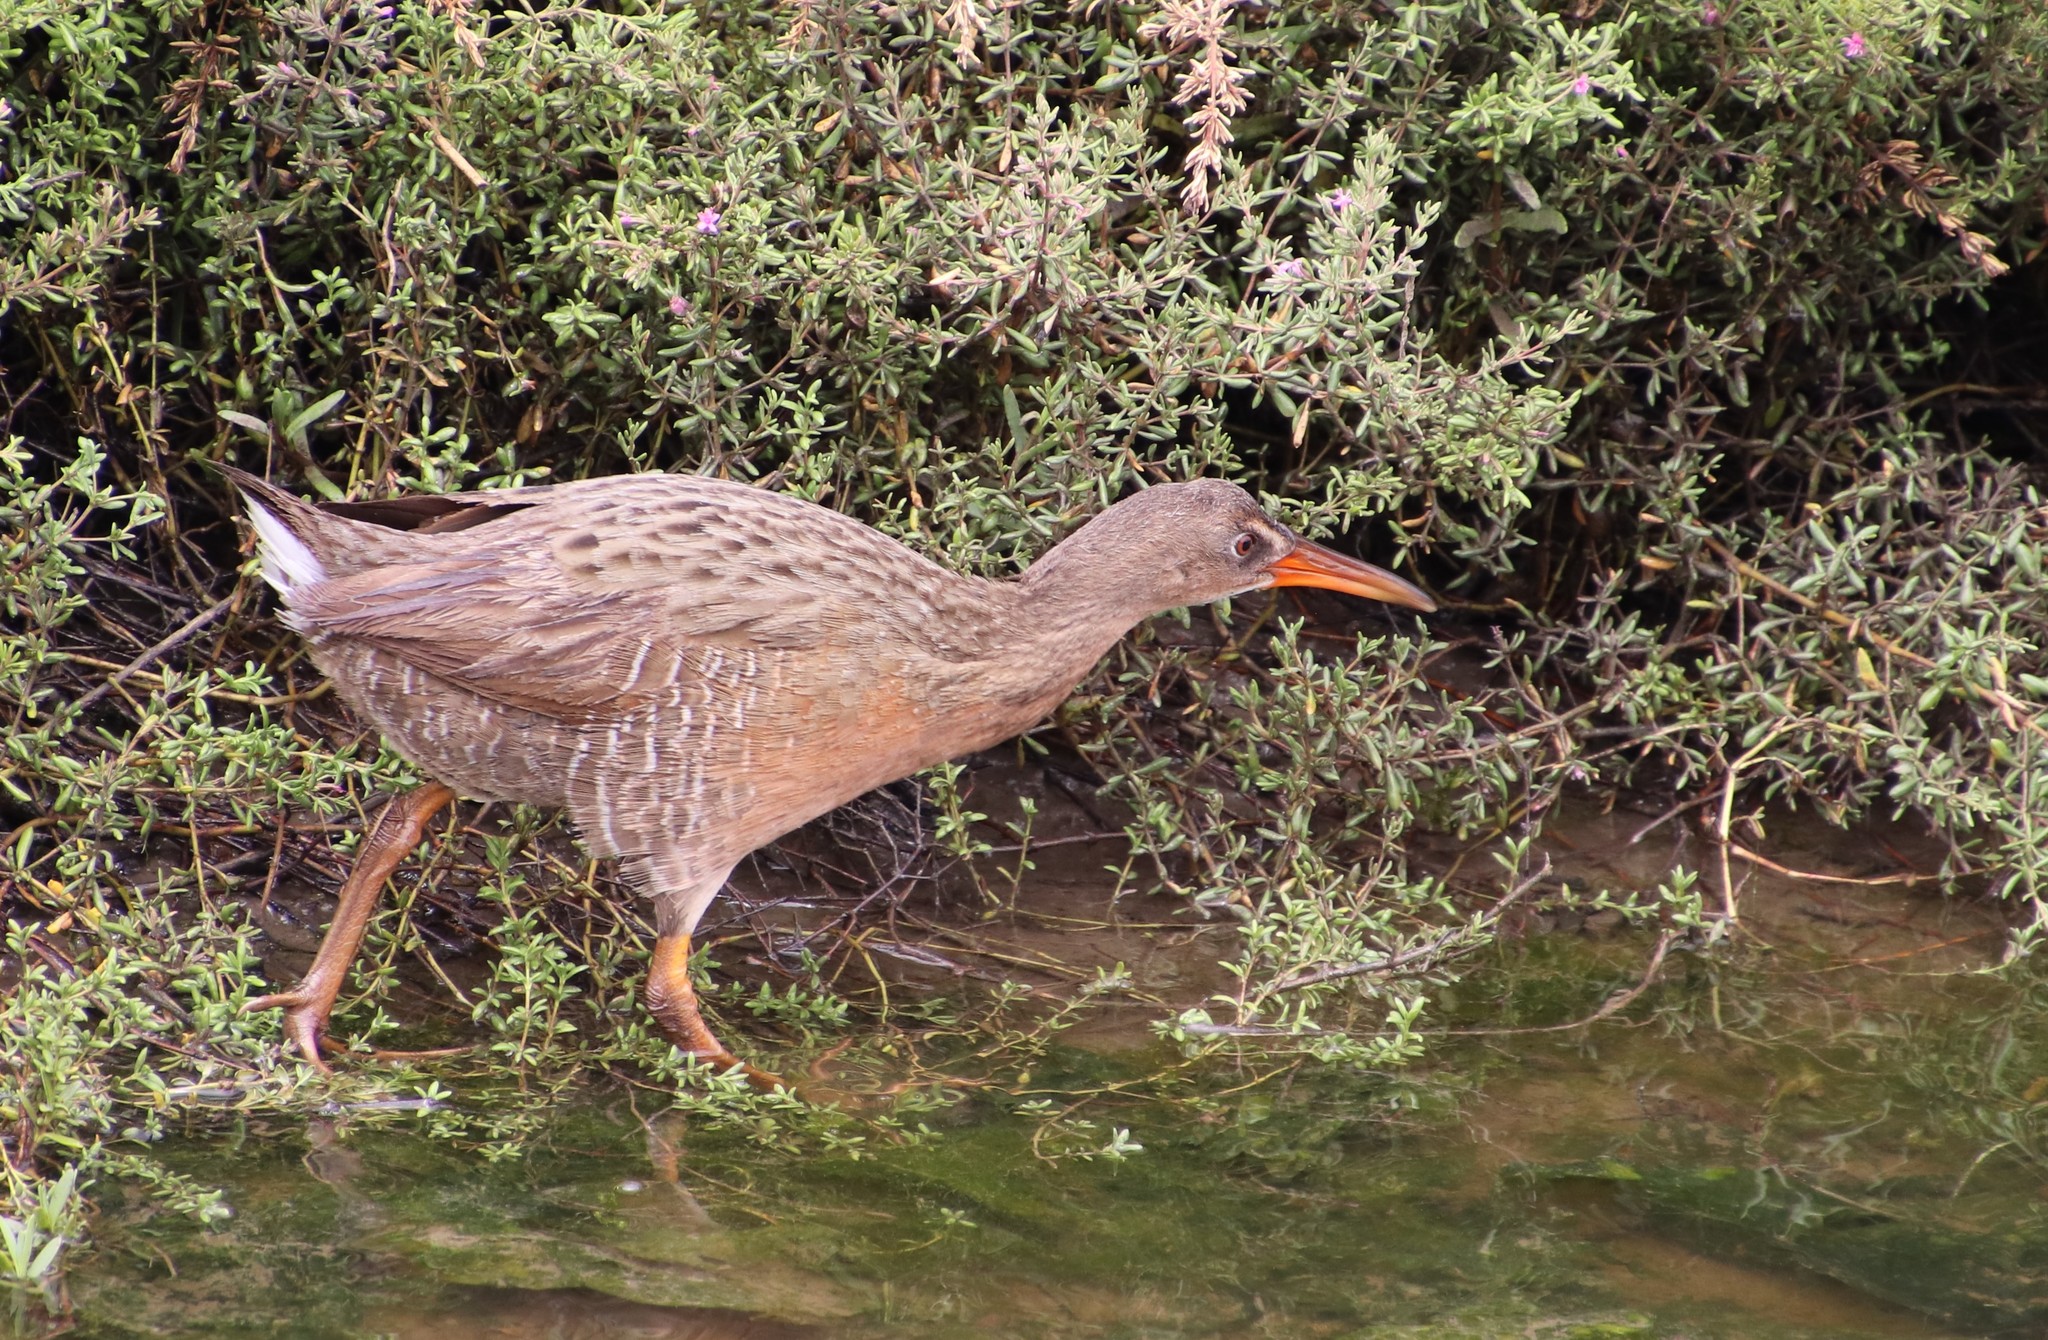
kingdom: Animalia
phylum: Chordata
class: Aves
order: Gruiformes
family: Rallidae
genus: Rallus
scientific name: Rallus obsoletus
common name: Ridgway's rail
